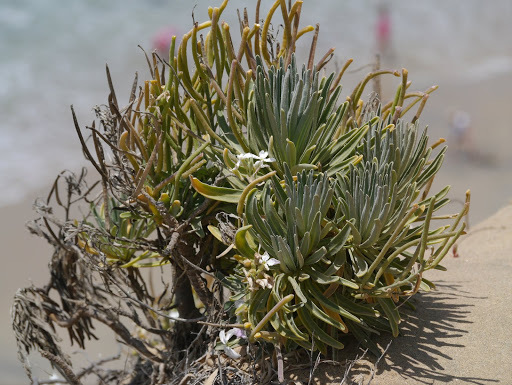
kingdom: Plantae
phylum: Tracheophyta
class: Magnoliopsida
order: Brassicales
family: Brassicaceae
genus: Matthiola
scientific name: Matthiola incana
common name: Hoary stock
